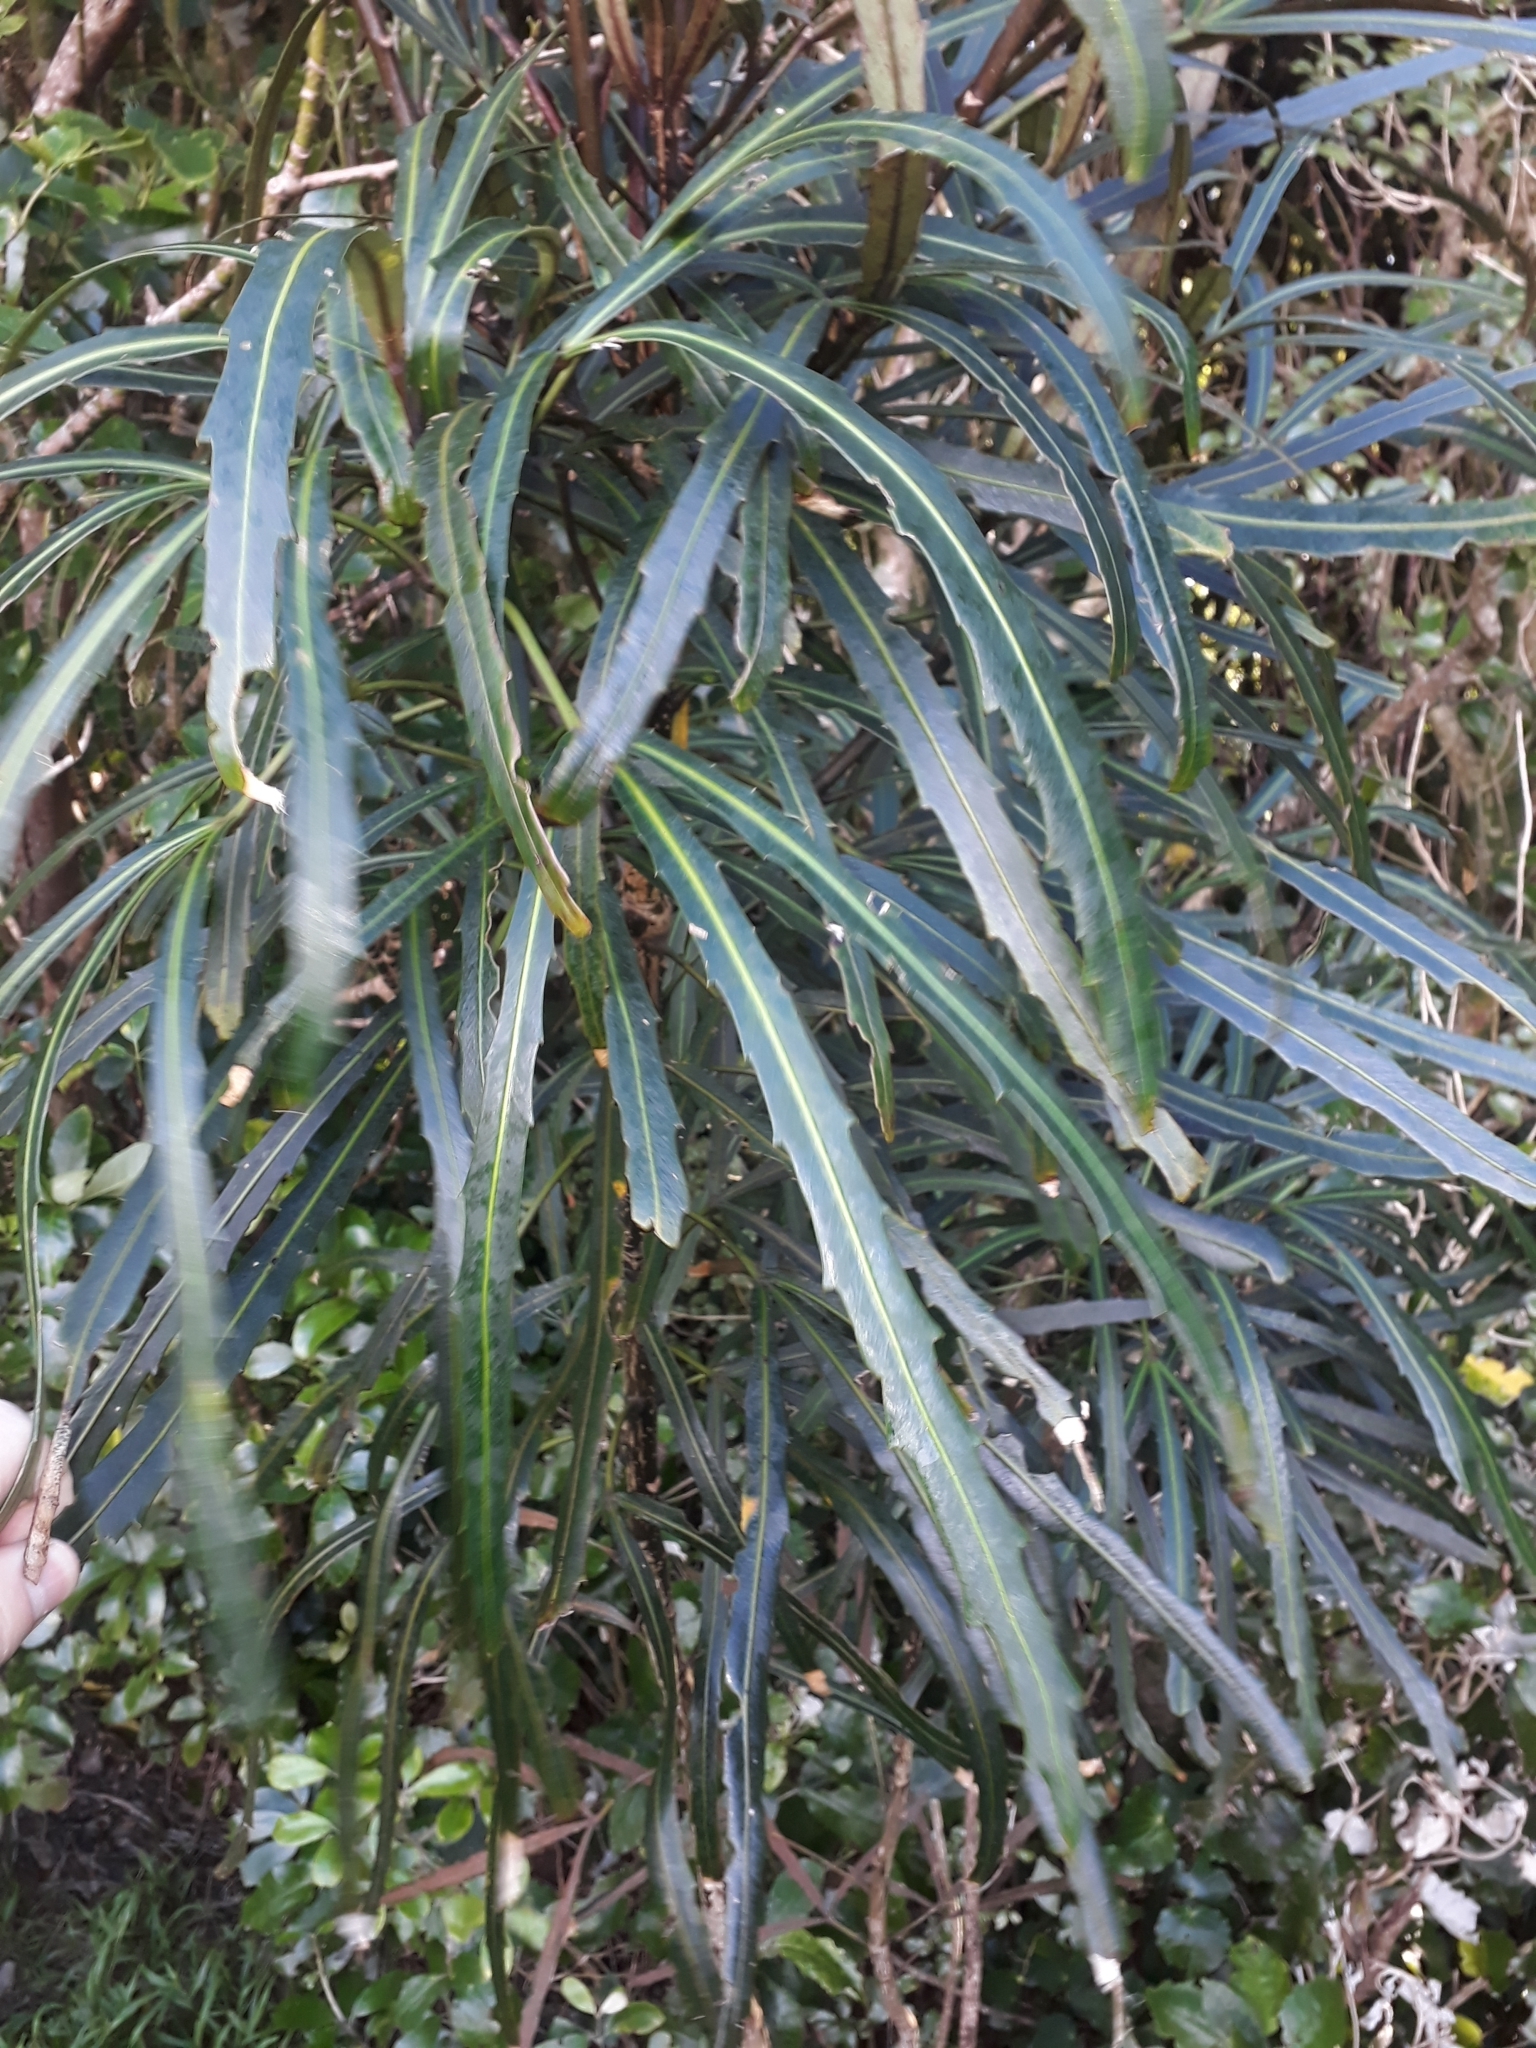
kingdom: Plantae
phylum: Tracheophyta
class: Magnoliopsida
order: Apiales
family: Araliaceae
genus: Pseudopanax
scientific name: Pseudopanax
